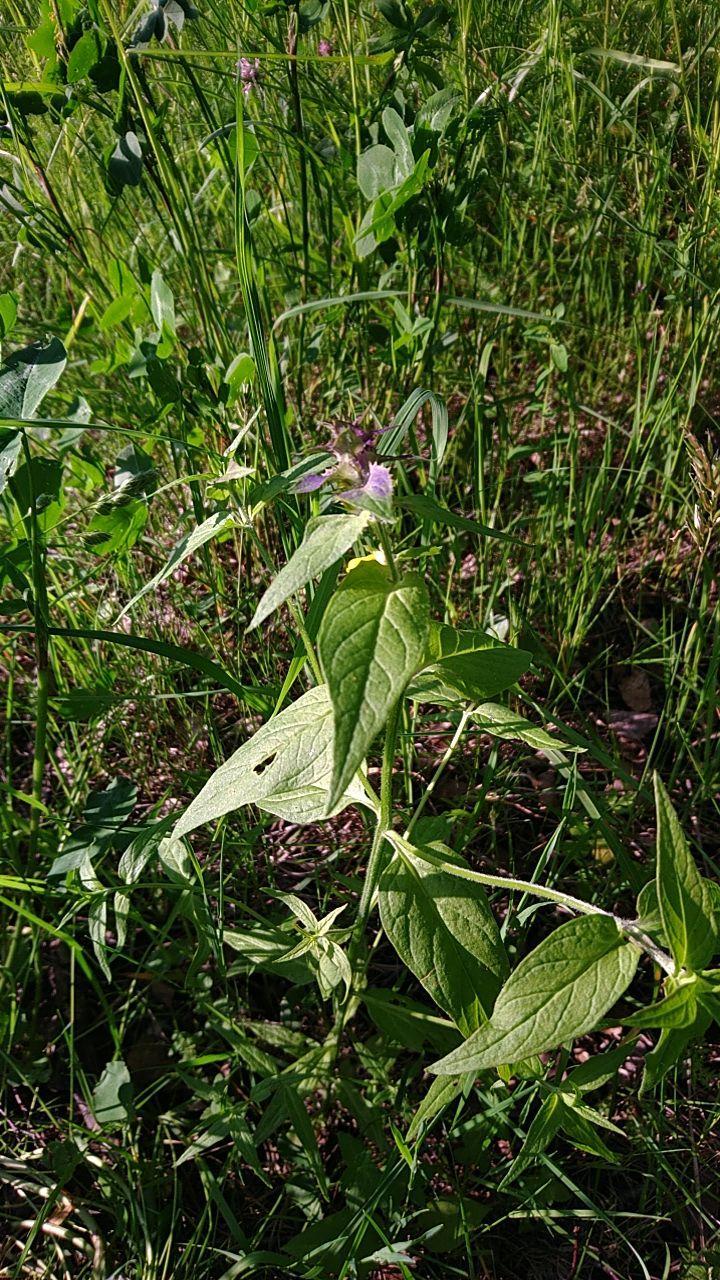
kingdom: Plantae
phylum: Tracheophyta
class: Magnoliopsida
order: Lamiales
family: Orobanchaceae
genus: Melampyrum
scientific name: Melampyrum nemorosum
